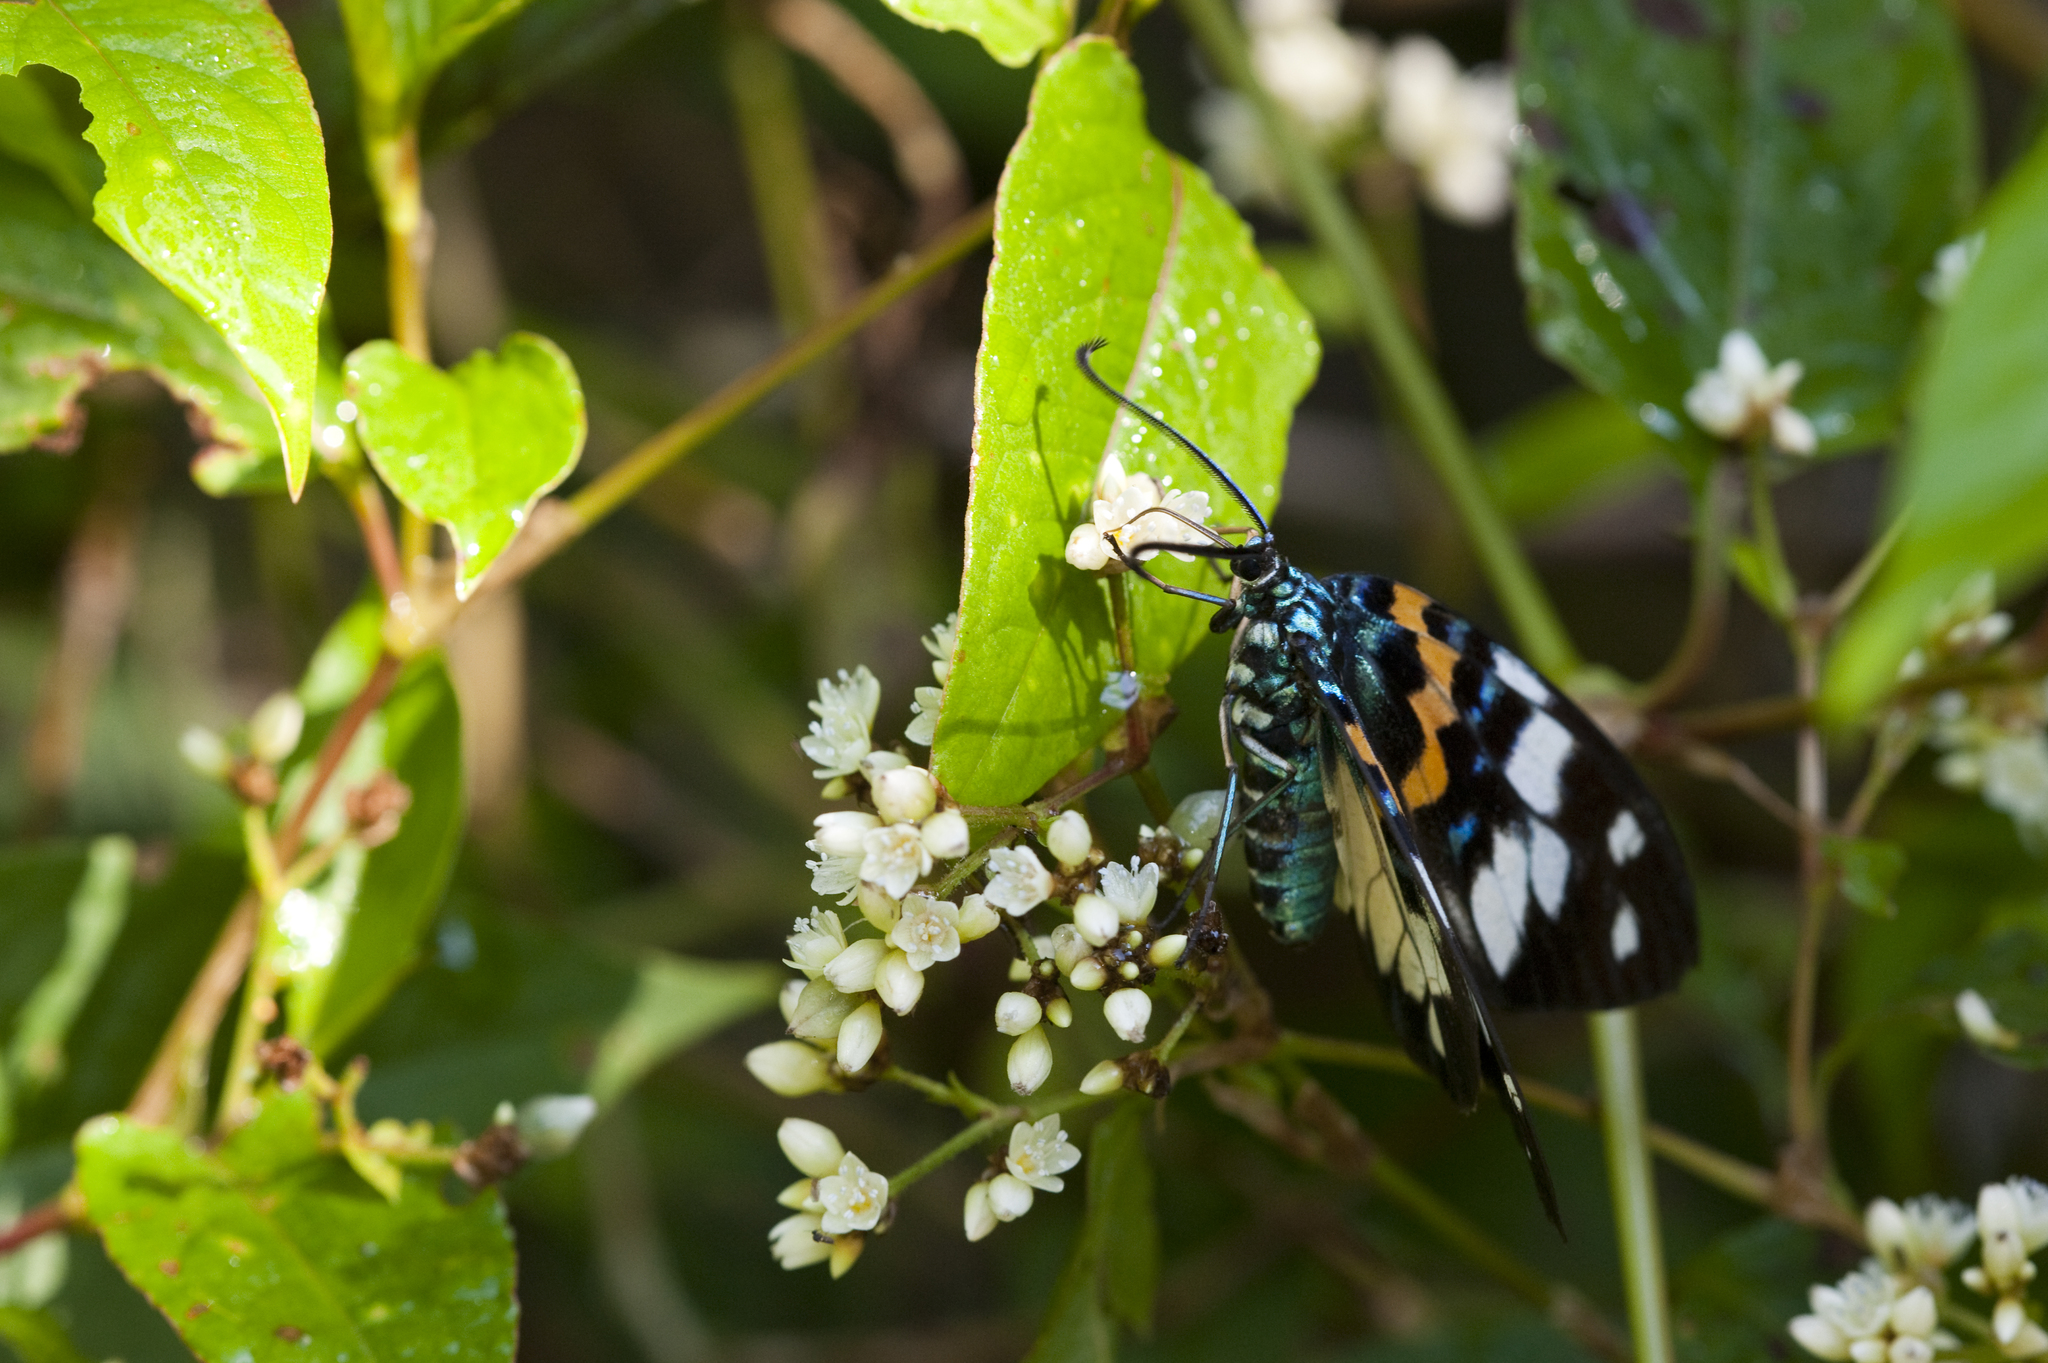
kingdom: Animalia
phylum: Arthropoda
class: Insecta
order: Lepidoptera
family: Zygaenidae
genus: Erasmia
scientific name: Erasmia pulchella
